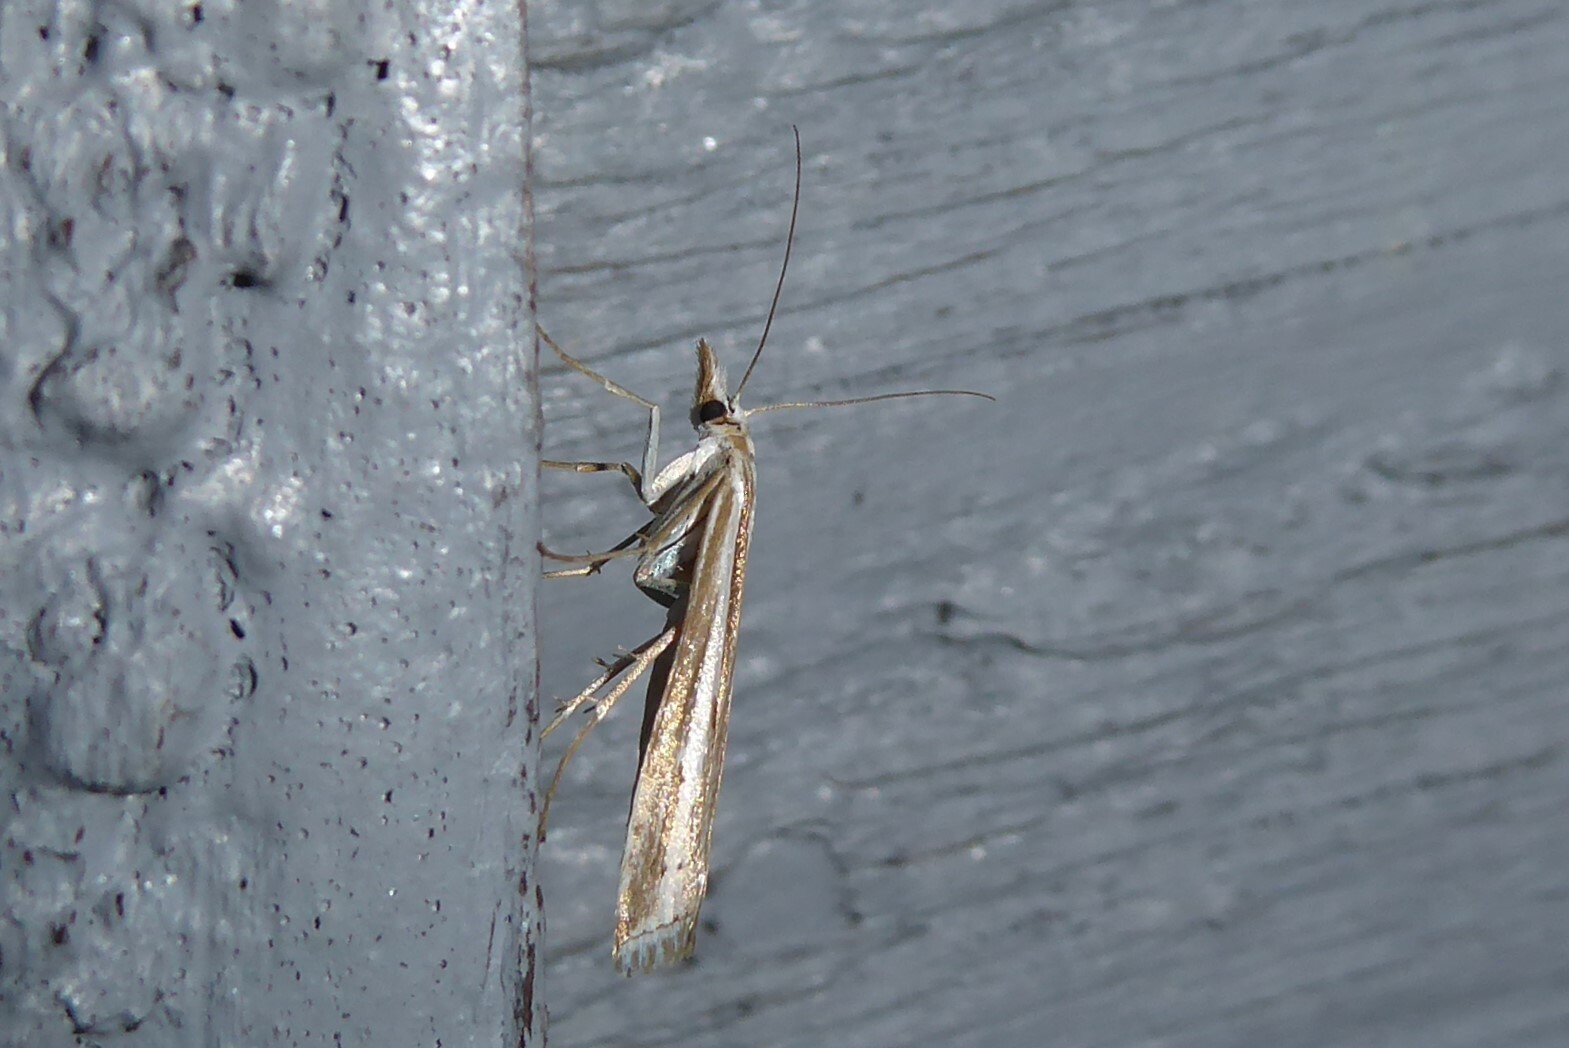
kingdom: Animalia
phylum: Arthropoda
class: Insecta
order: Lepidoptera
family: Crambidae
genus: Orocrambus
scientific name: Orocrambus vittellus
